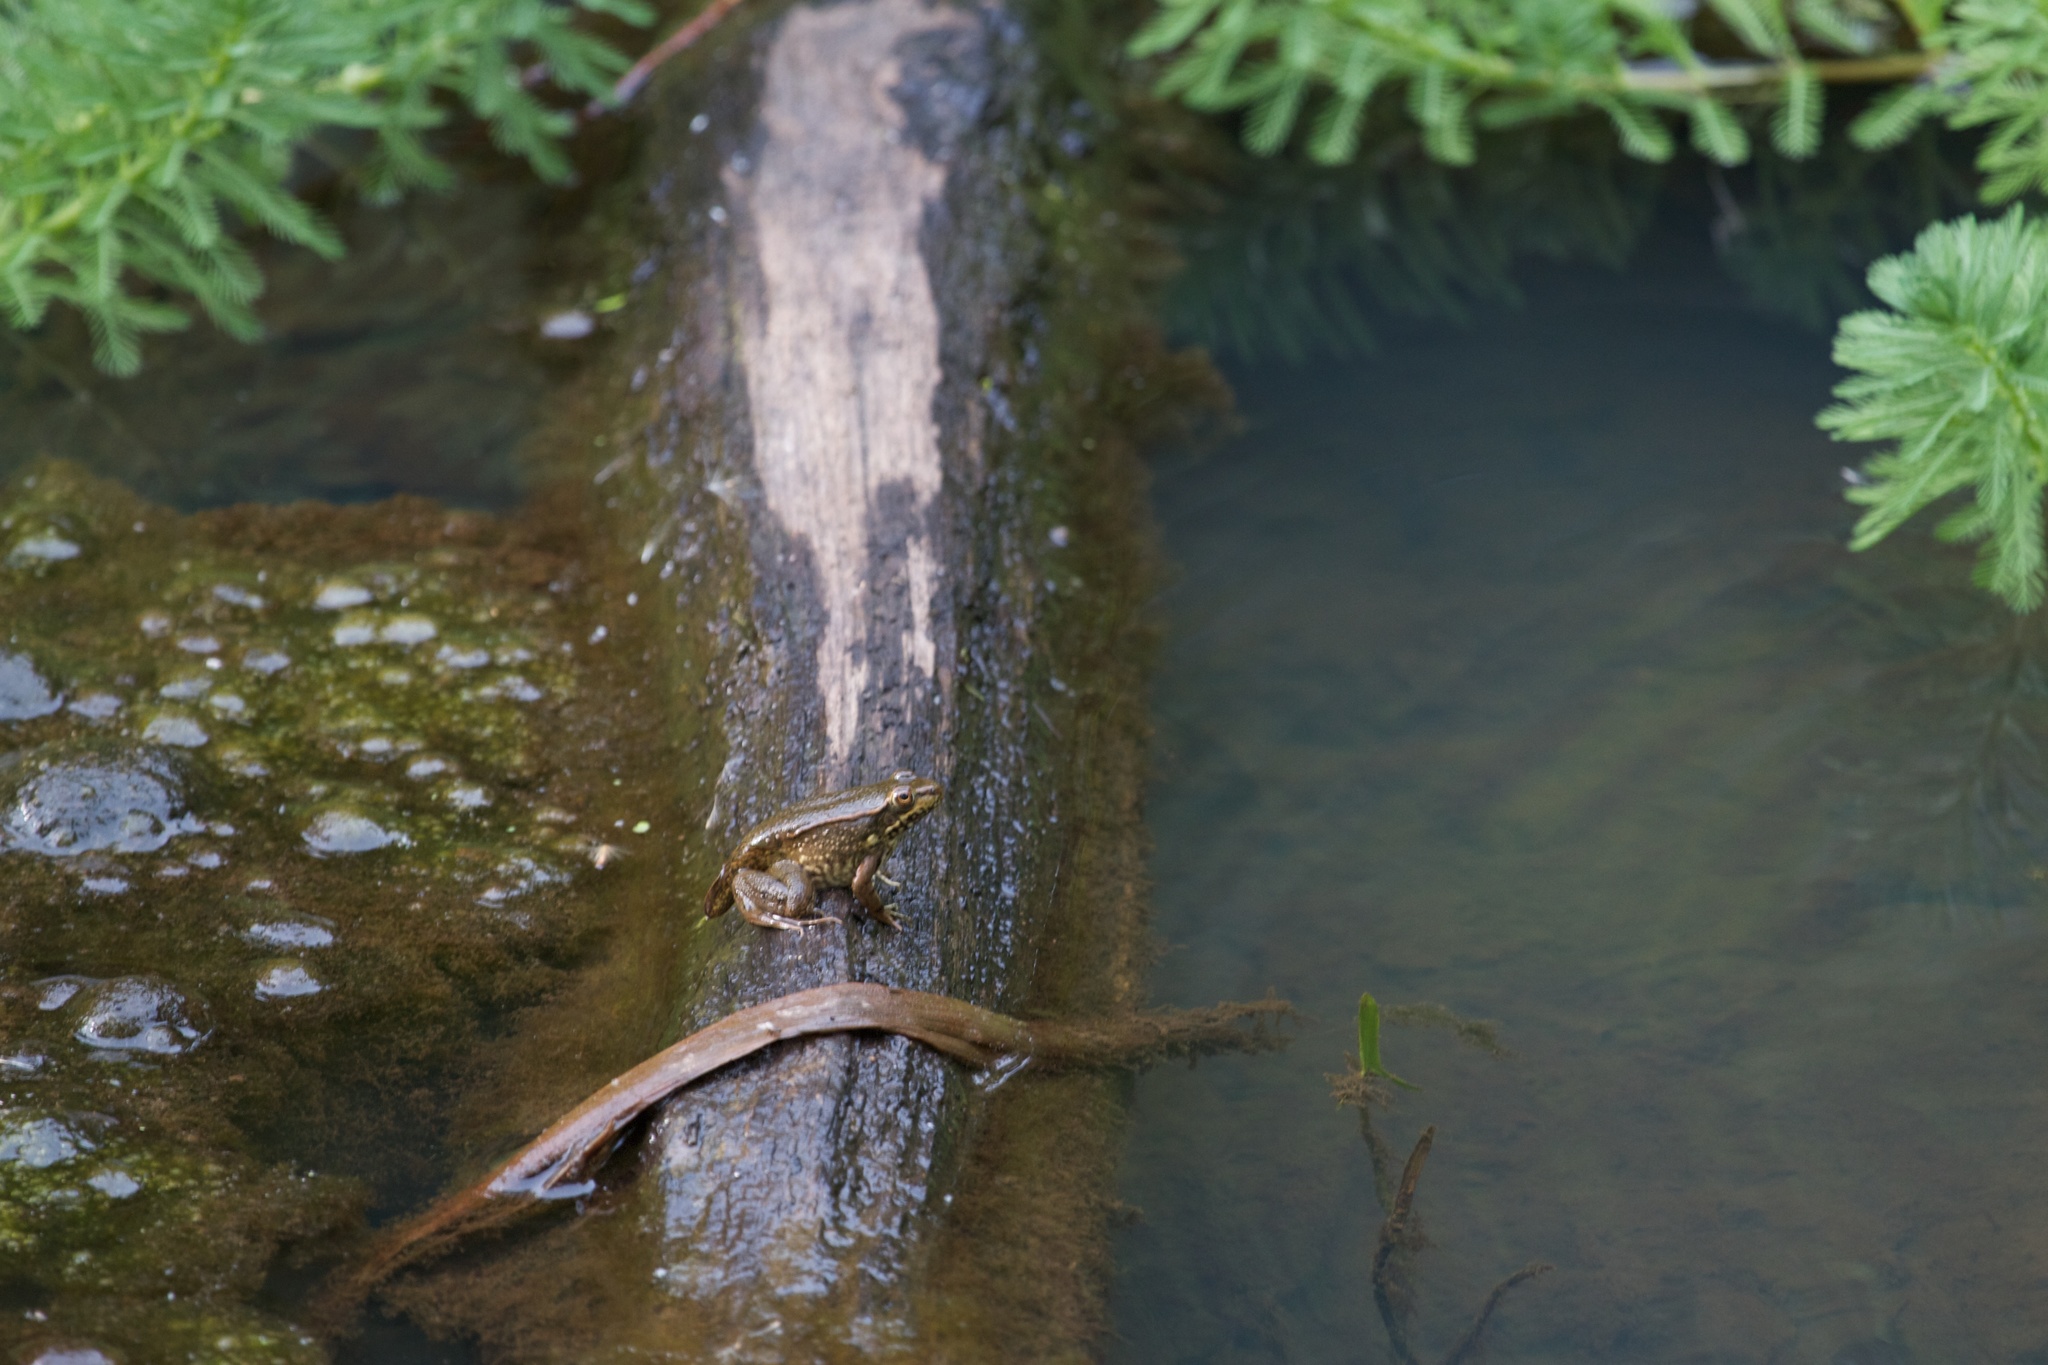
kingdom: Animalia
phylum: Chordata
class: Amphibia
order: Anura
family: Ranidae
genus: Lithobates
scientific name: Lithobates clamitans
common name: Green frog
